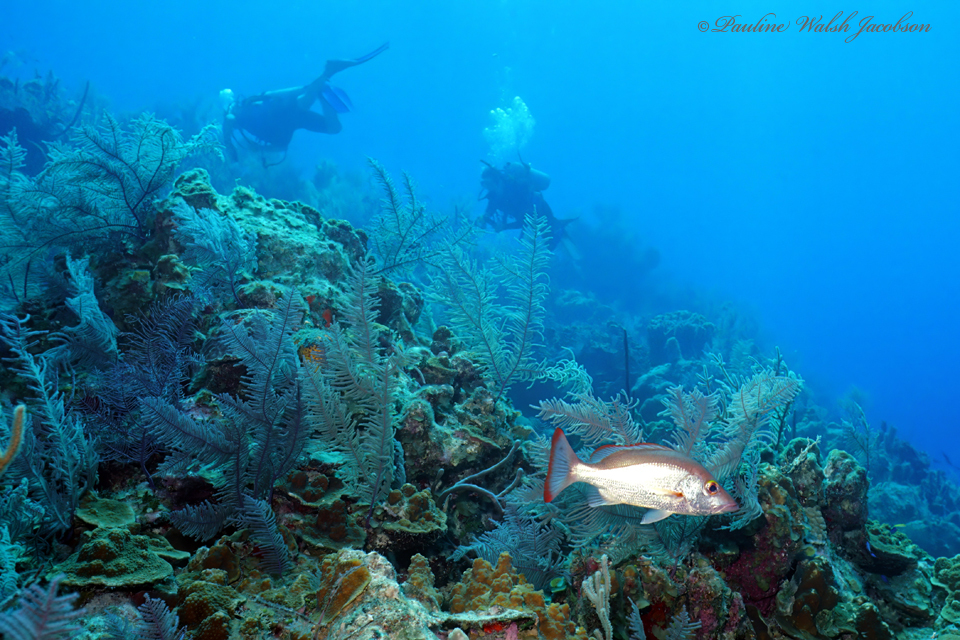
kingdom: Animalia
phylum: Chordata
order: Perciformes
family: Lutjanidae
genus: Lutjanus
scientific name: Lutjanus mahogoni
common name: Spot snapper
